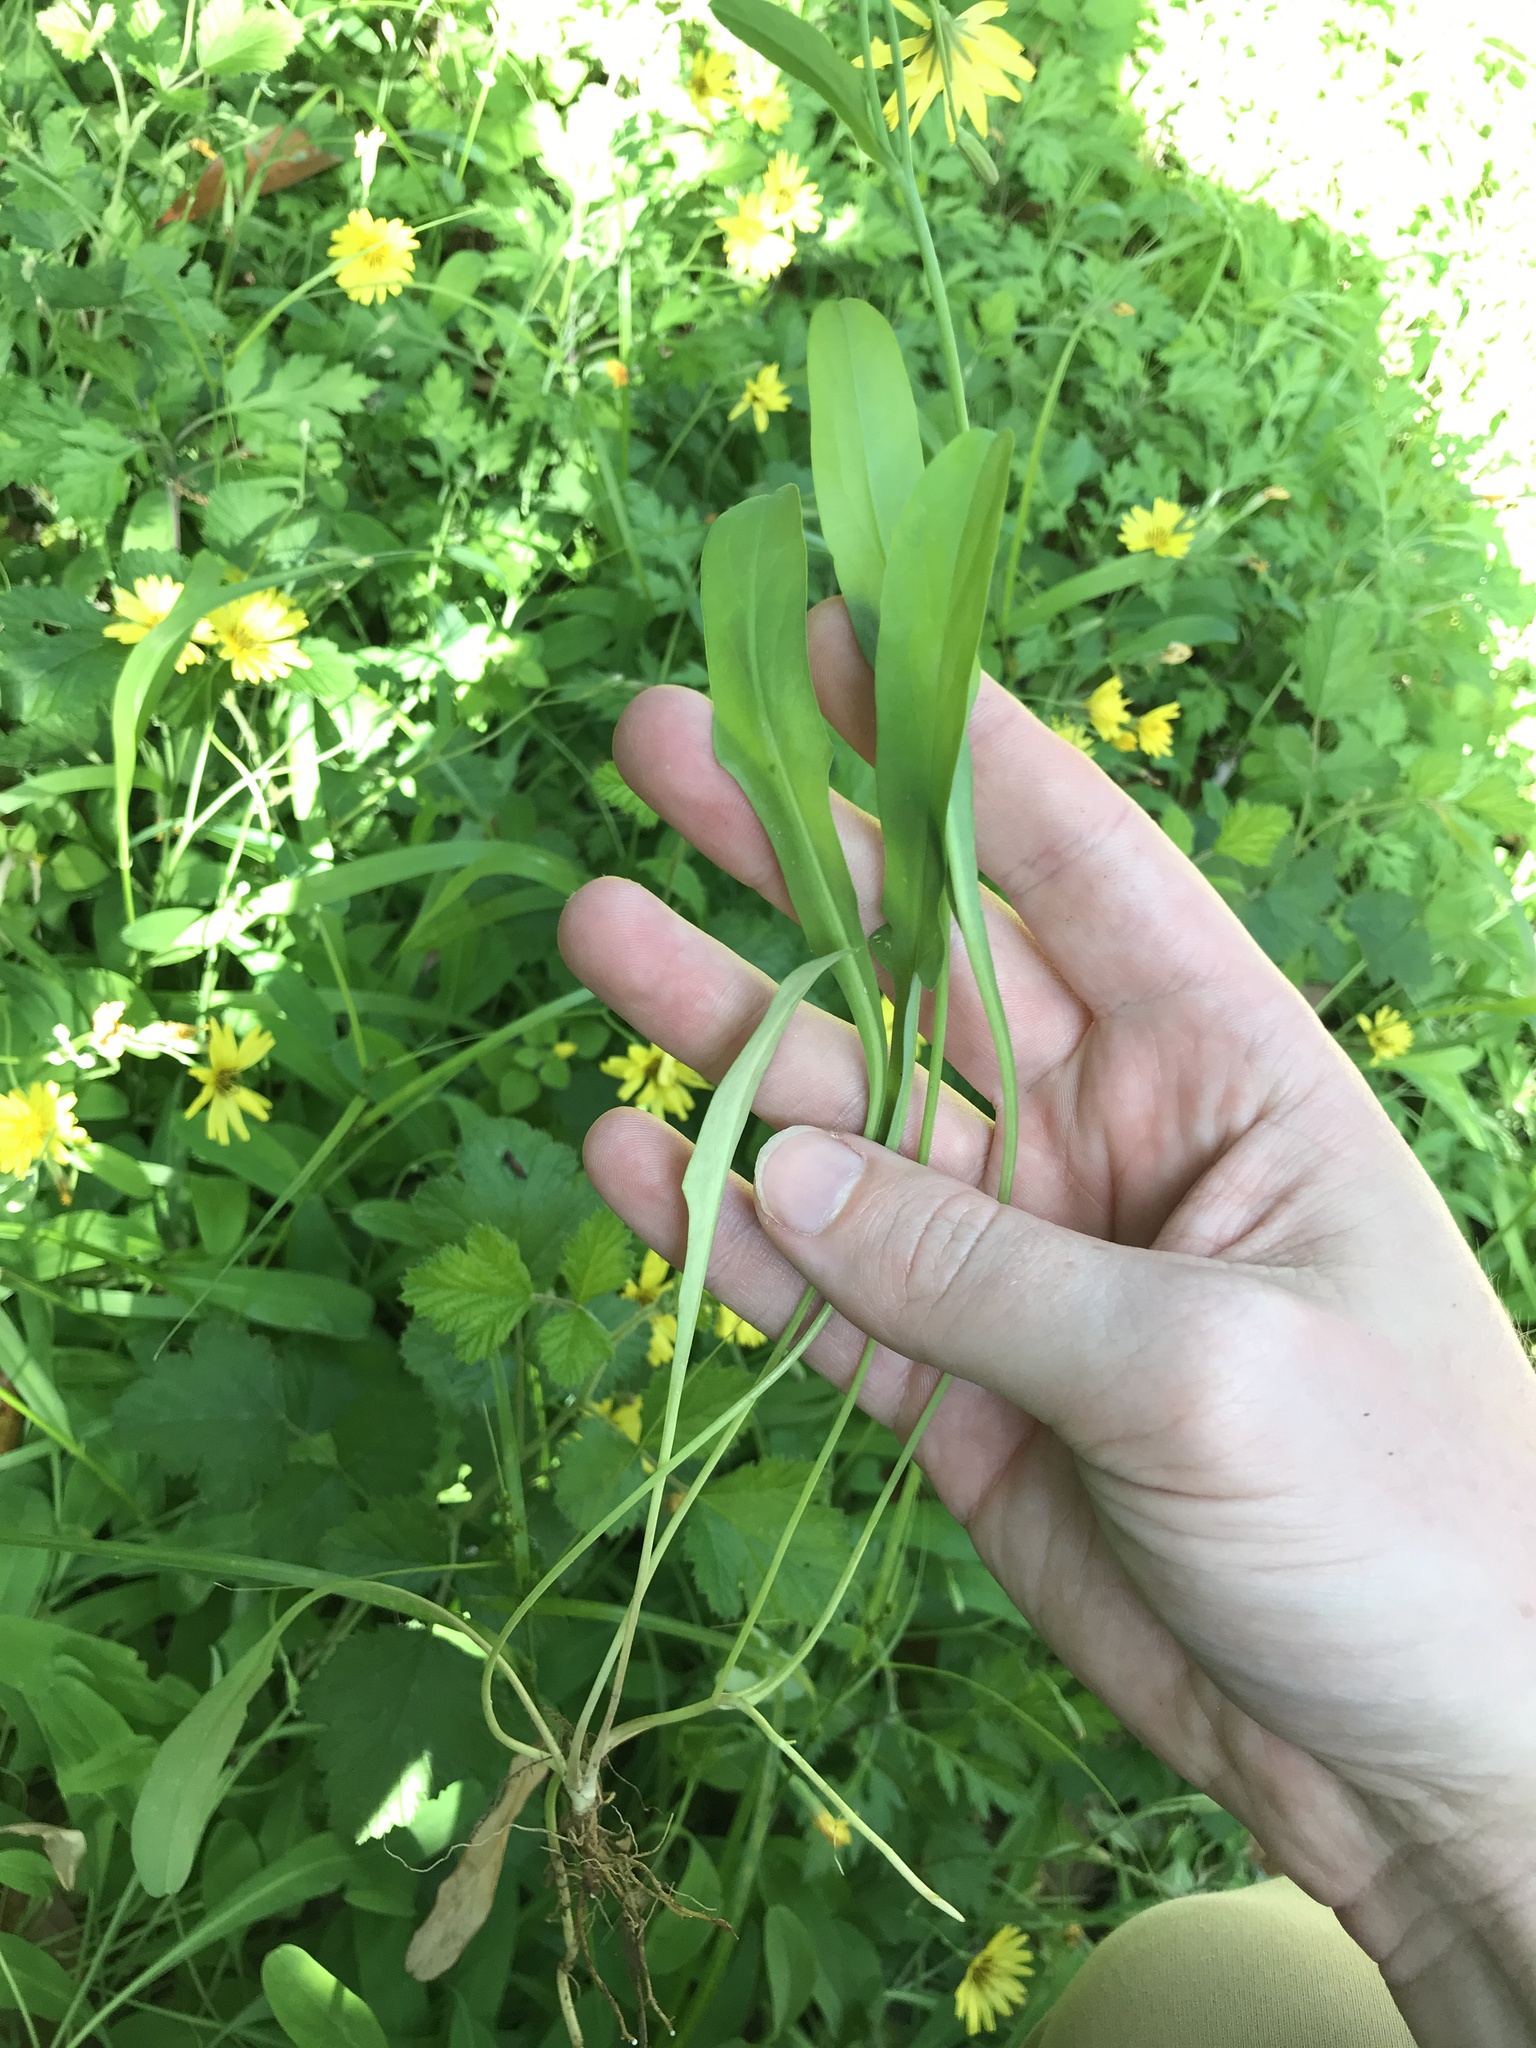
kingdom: Plantae
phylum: Tracheophyta
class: Magnoliopsida
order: Asterales
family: Asteraceae
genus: Ixeris
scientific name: Ixeris japonica
